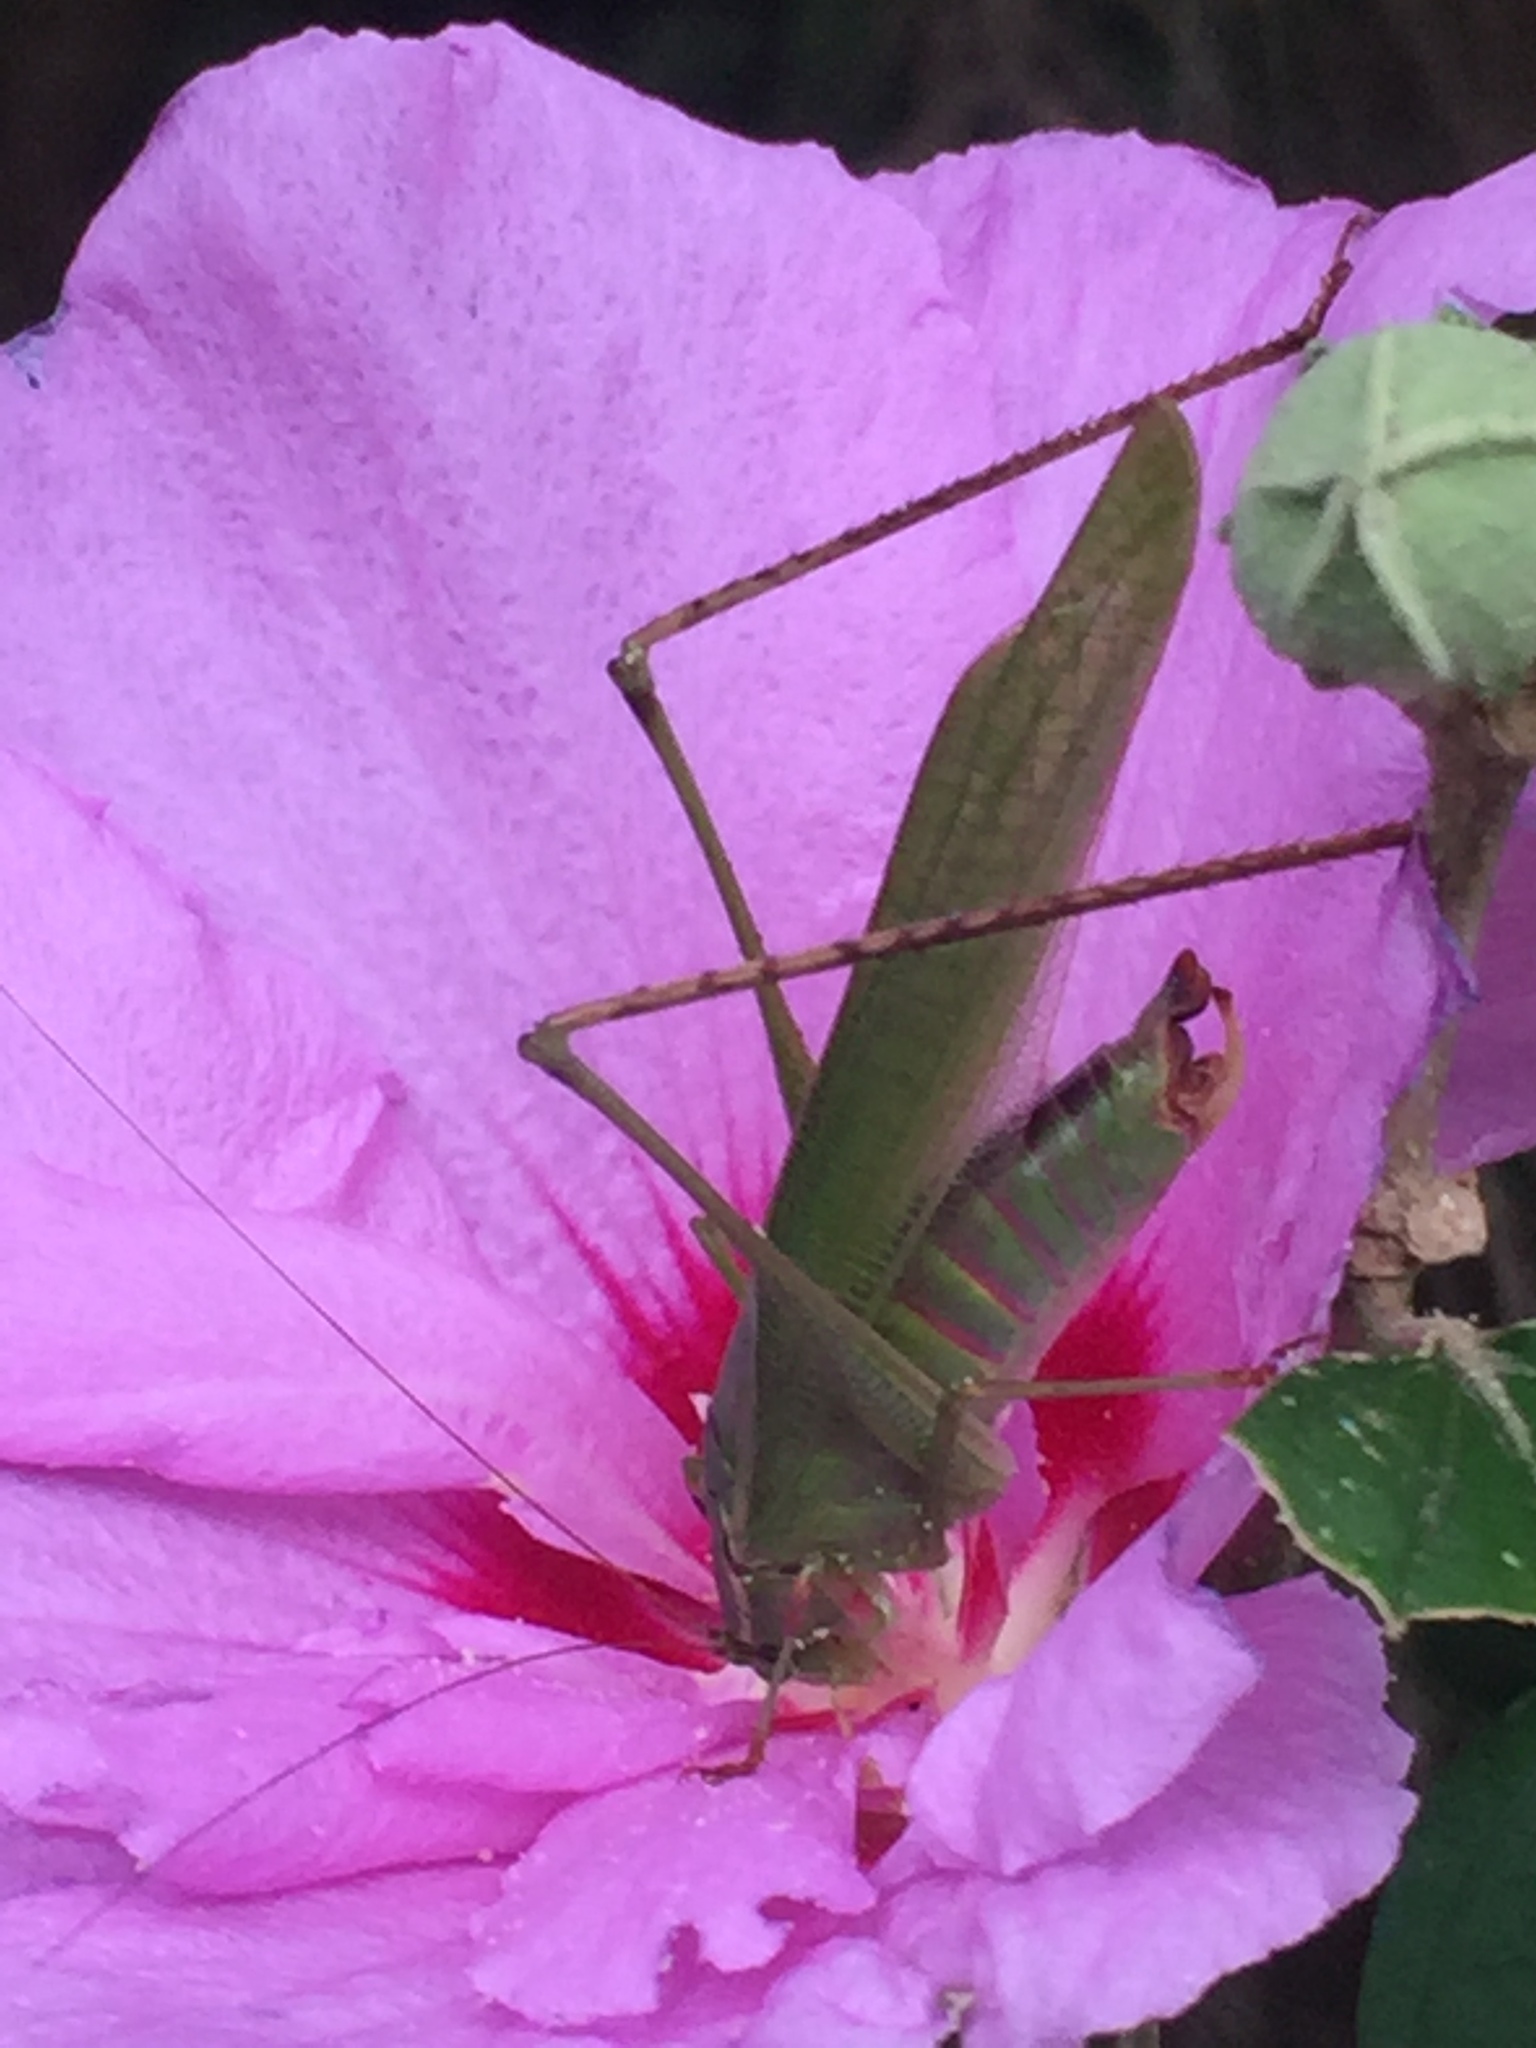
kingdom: Animalia
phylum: Arthropoda
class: Insecta
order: Orthoptera
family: Tettigoniidae
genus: Scudderia
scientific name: Scudderia furcata
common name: Fork-tailed bush katydid
